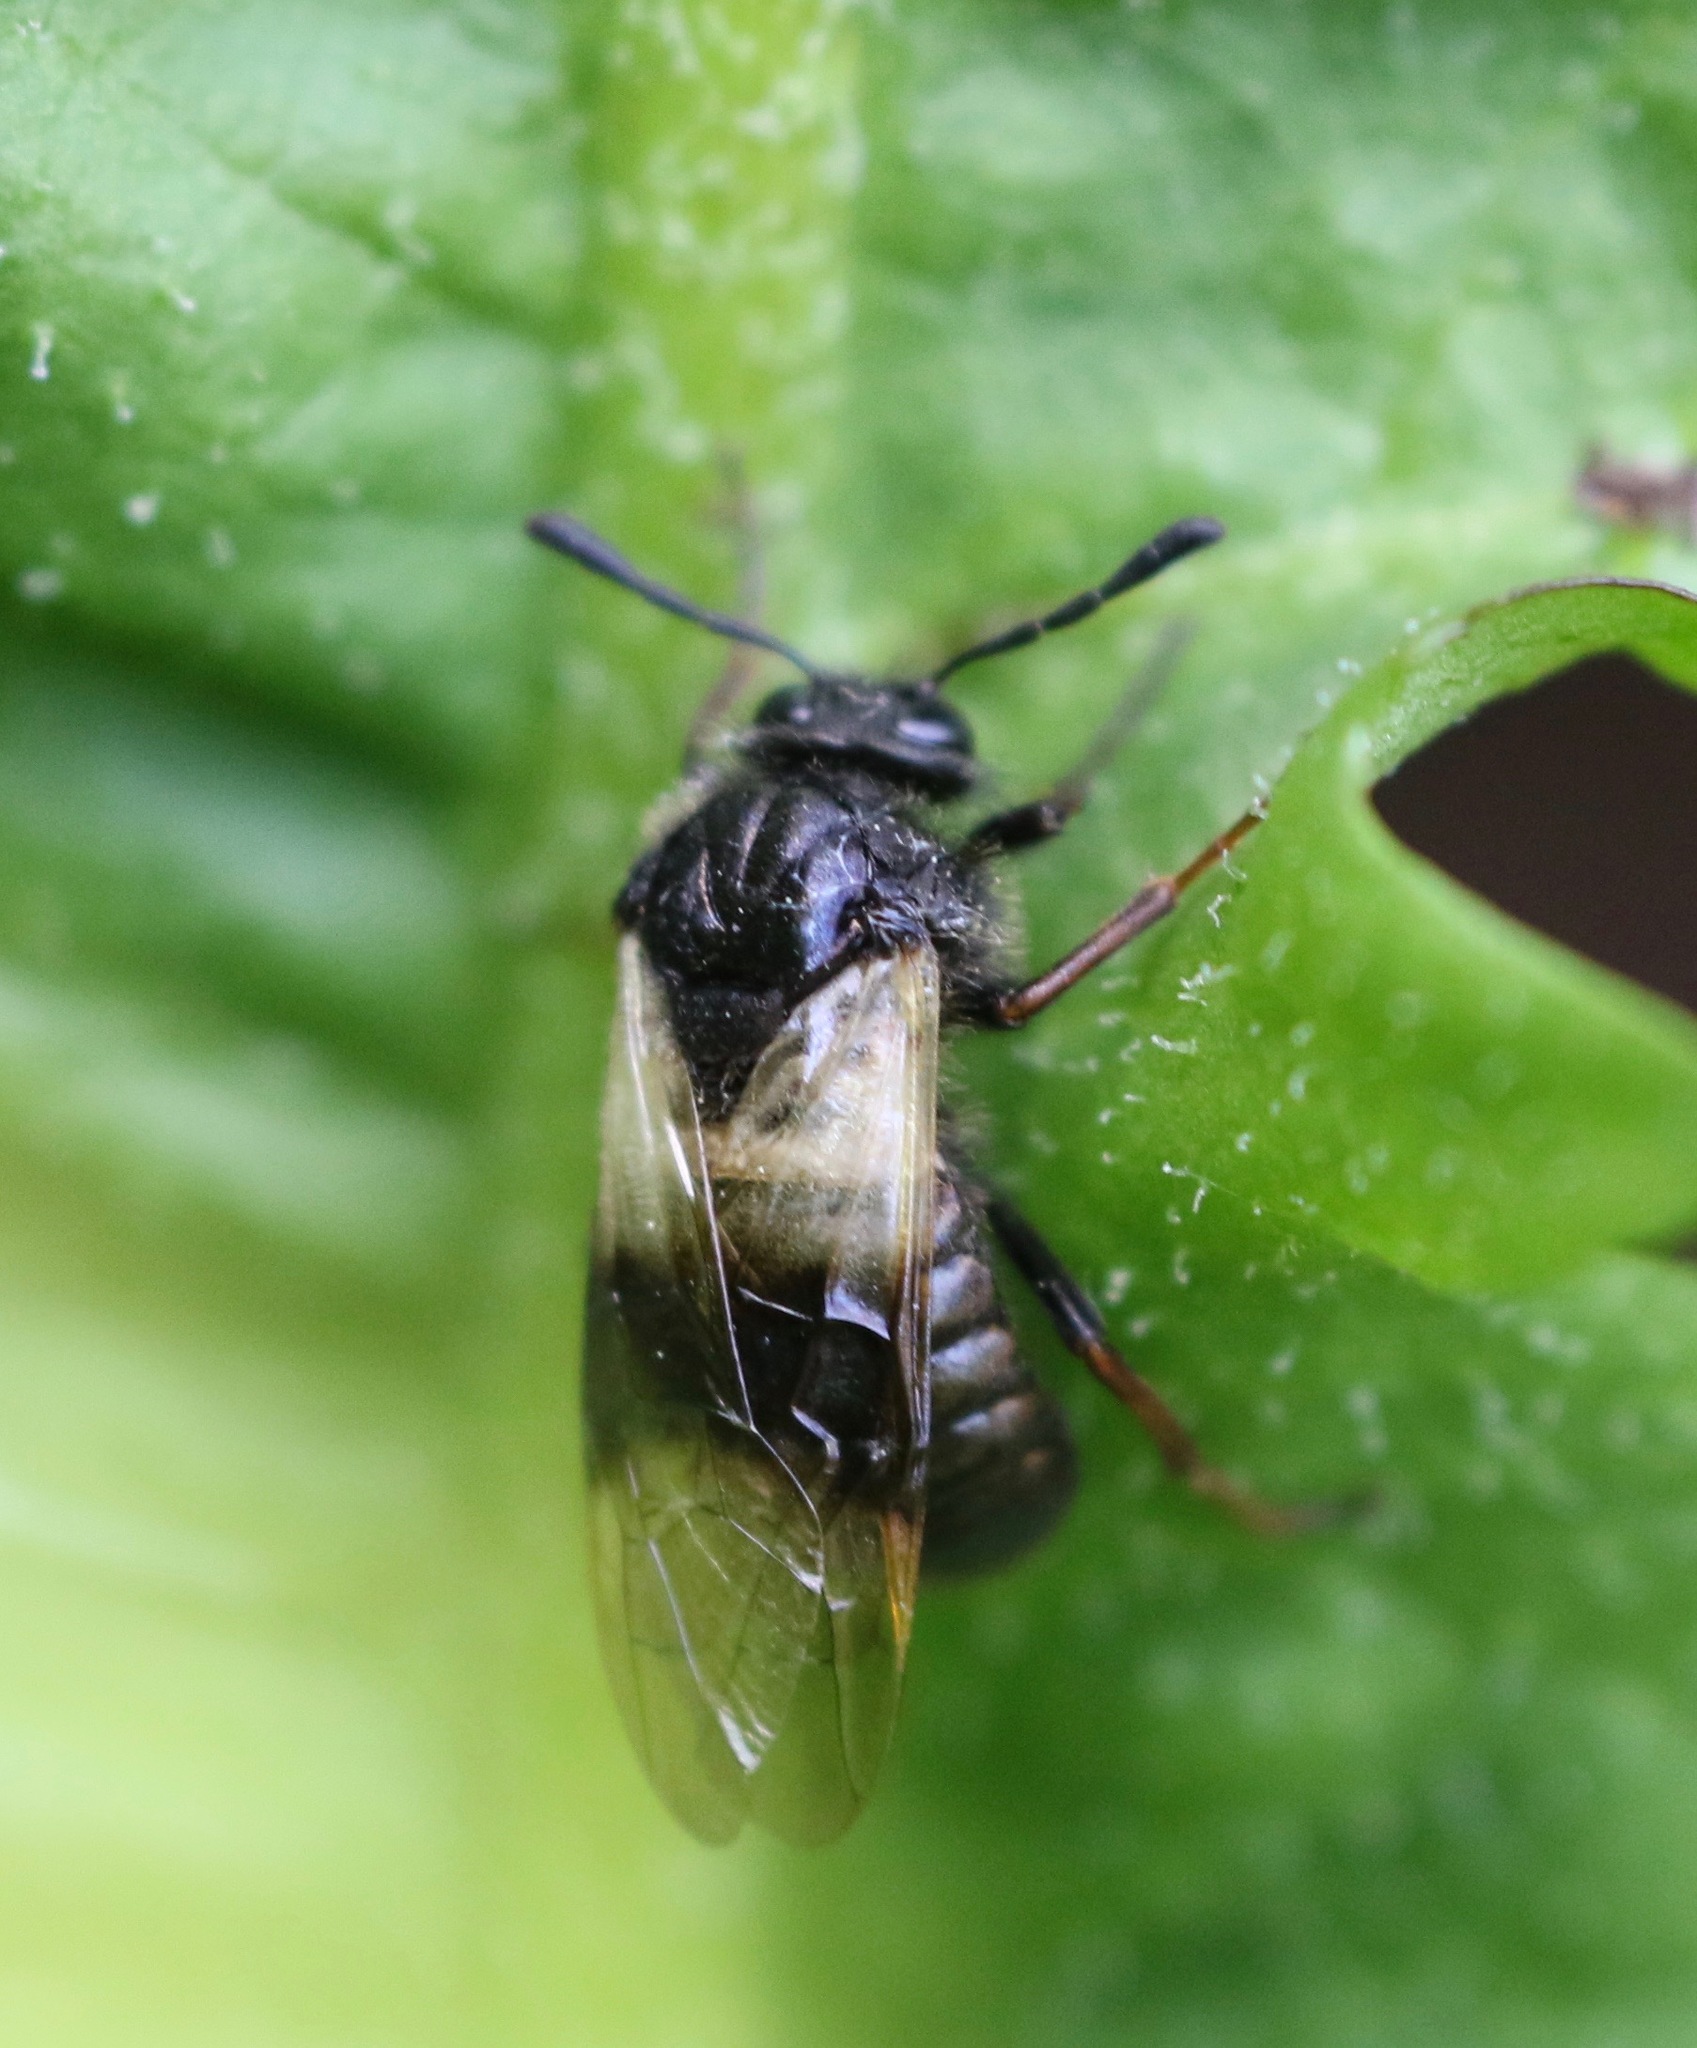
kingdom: Animalia
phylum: Arthropoda
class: Insecta
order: Hymenoptera
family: Cimbicidae
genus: Abia
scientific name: Abia fasciata
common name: Banded honeysuckle sawfly
